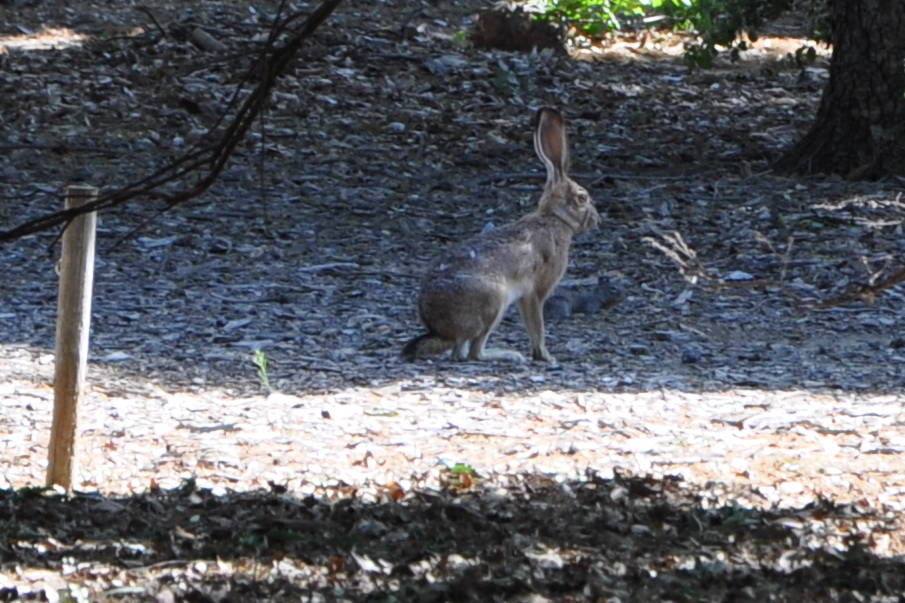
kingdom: Animalia
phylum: Chordata
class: Mammalia
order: Lagomorpha
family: Leporidae
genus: Lepus
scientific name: Lepus californicus
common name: Black-tailed jackrabbit
